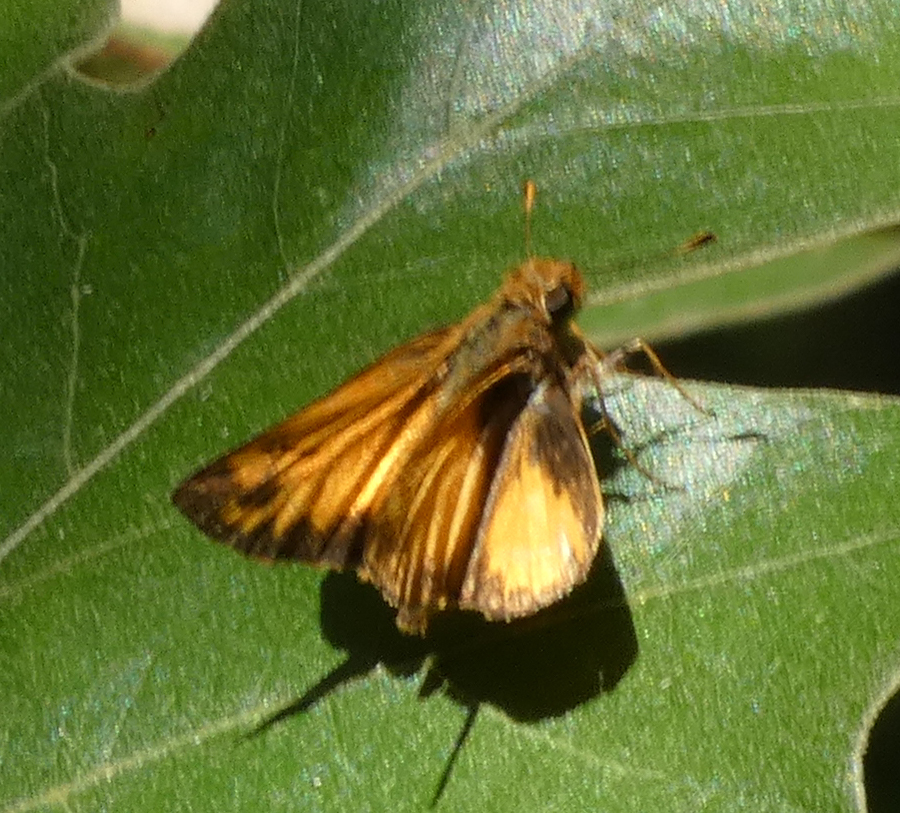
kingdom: Animalia
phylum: Arthropoda
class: Insecta
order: Lepidoptera
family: Hesperiidae
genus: Lon
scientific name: Lon zabulon
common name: Zabulon skipper
